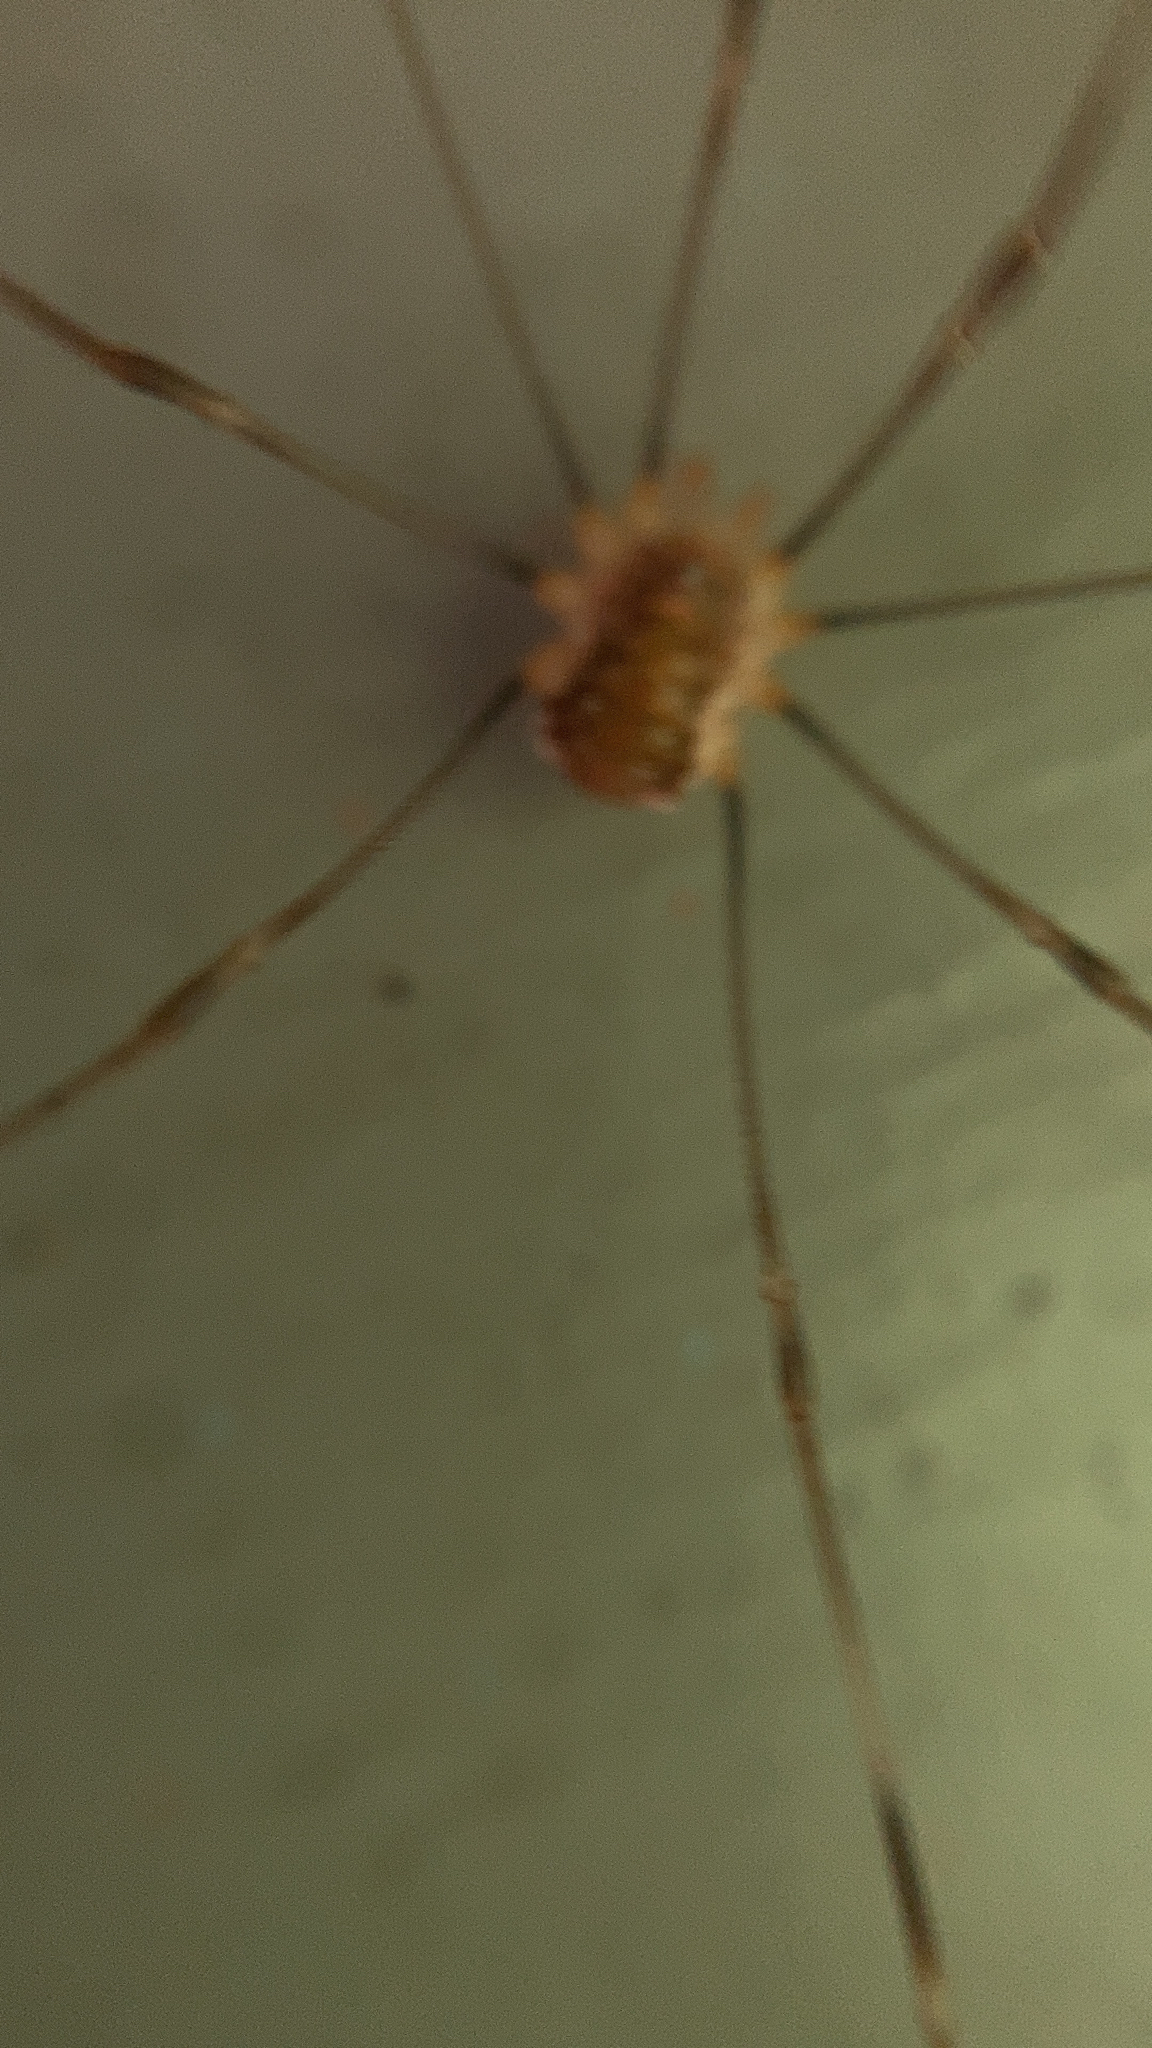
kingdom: Animalia
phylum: Arthropoda
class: Arachnida
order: Opiliones
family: Phalangiidae
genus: Opilio
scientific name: Opilio canestrinii
